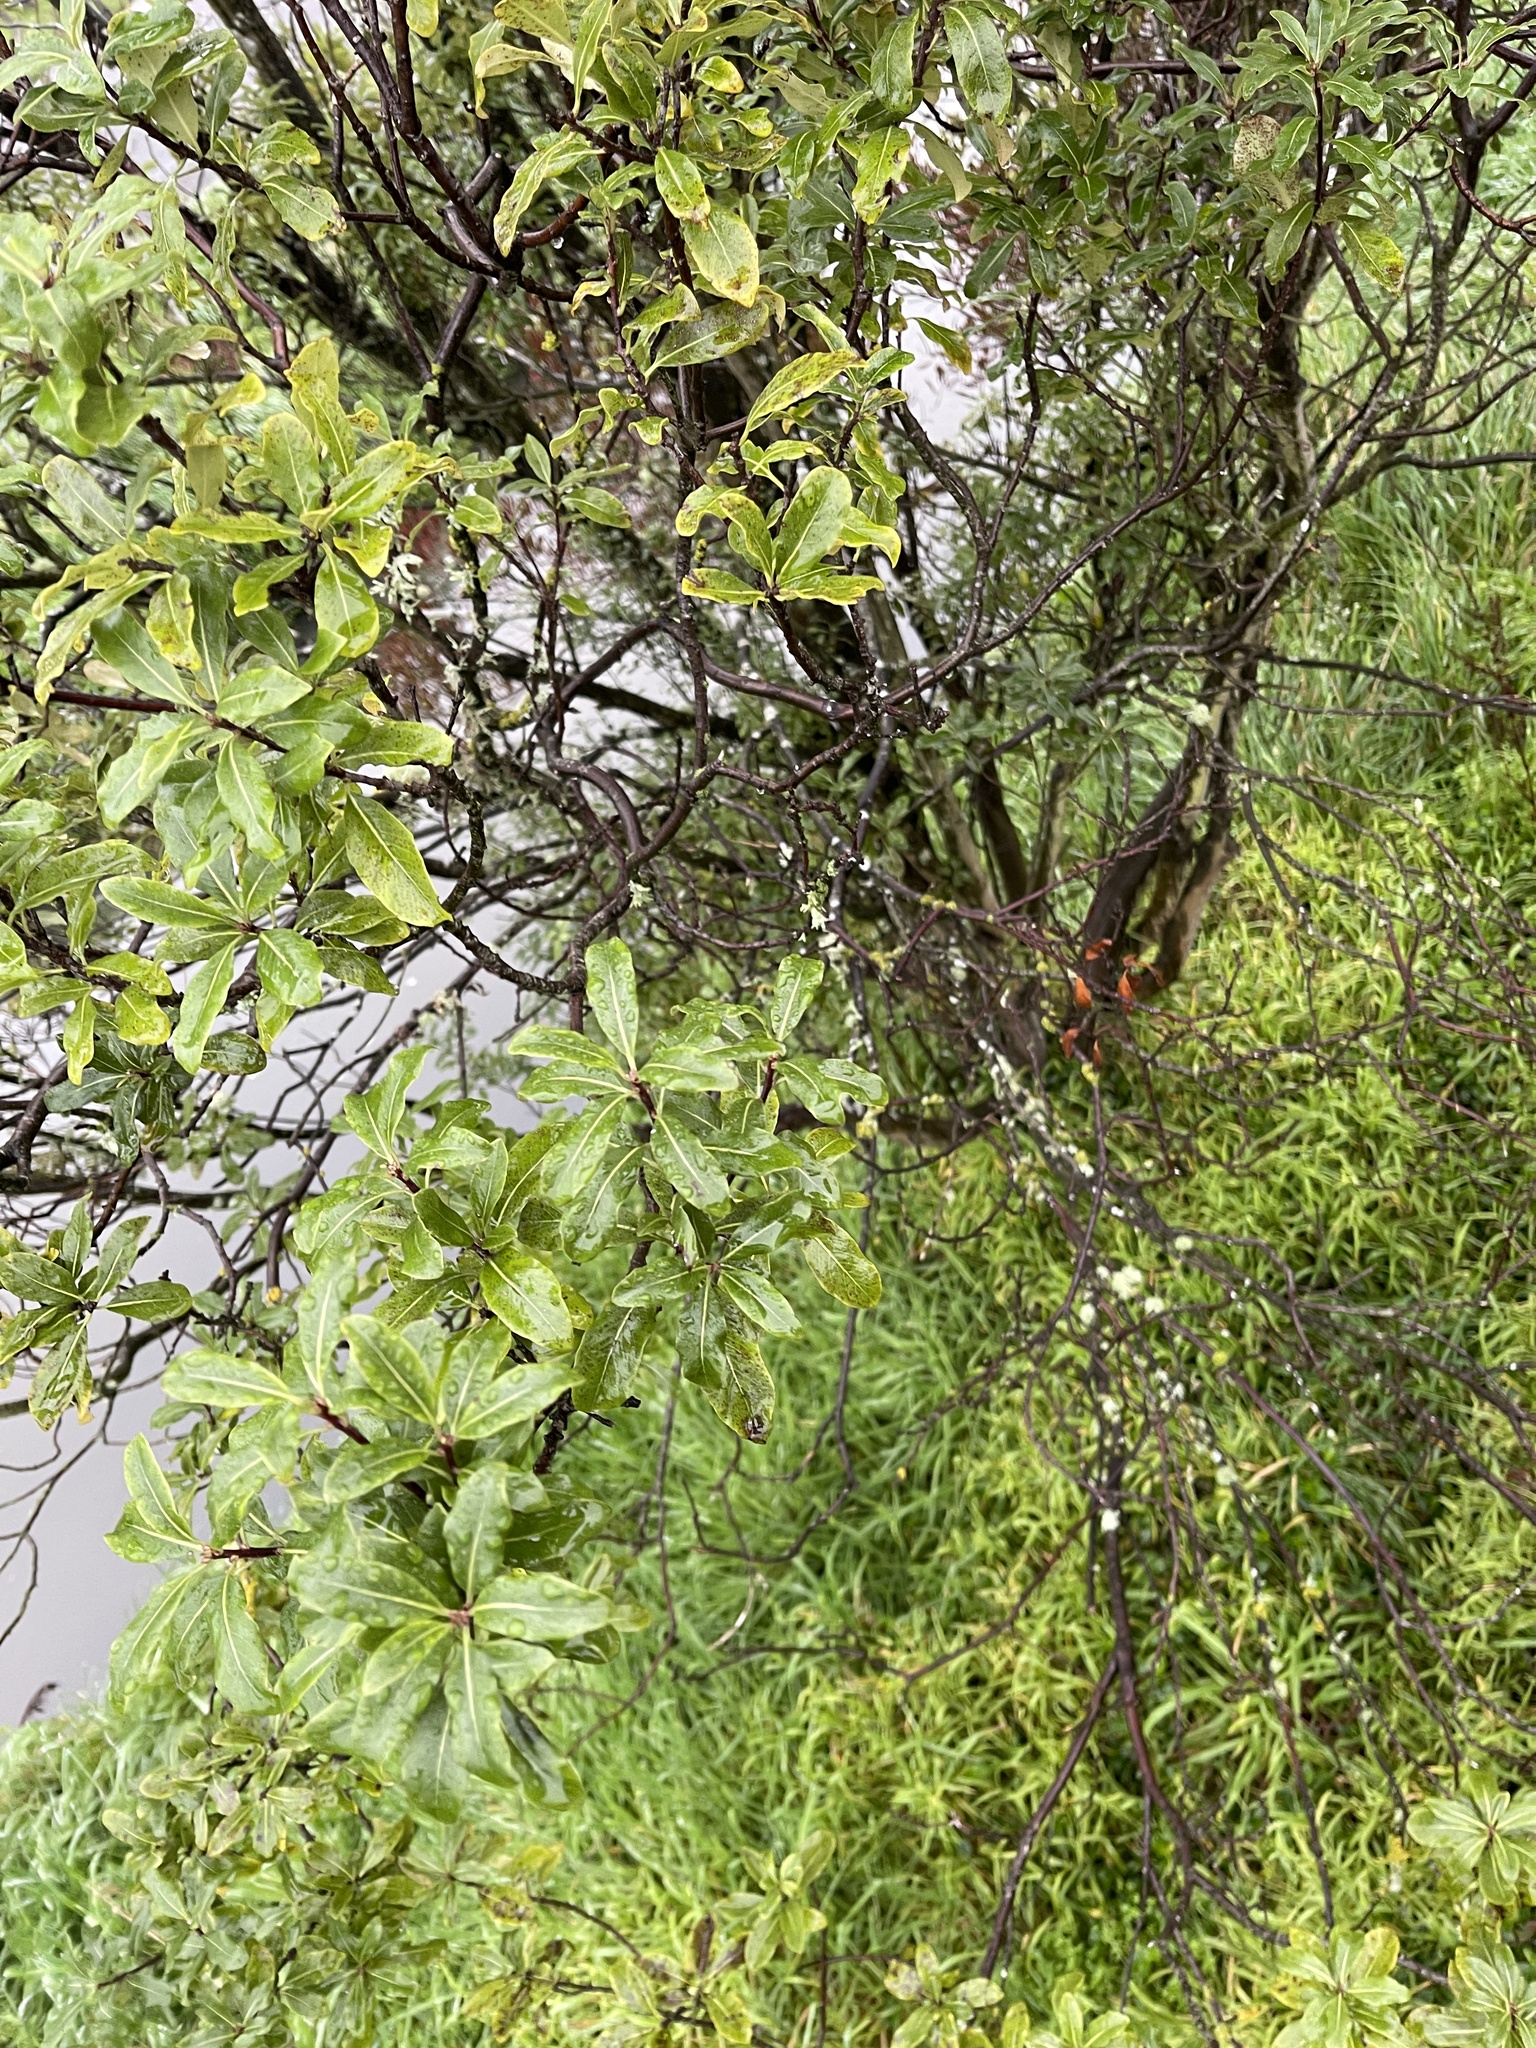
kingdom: Plantae
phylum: Tracheophyta
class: Magnoliopsida
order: Apiales
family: Pittosporaceae
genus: Pittosporum
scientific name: Pittosporum eugenioides
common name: Lemonwood
